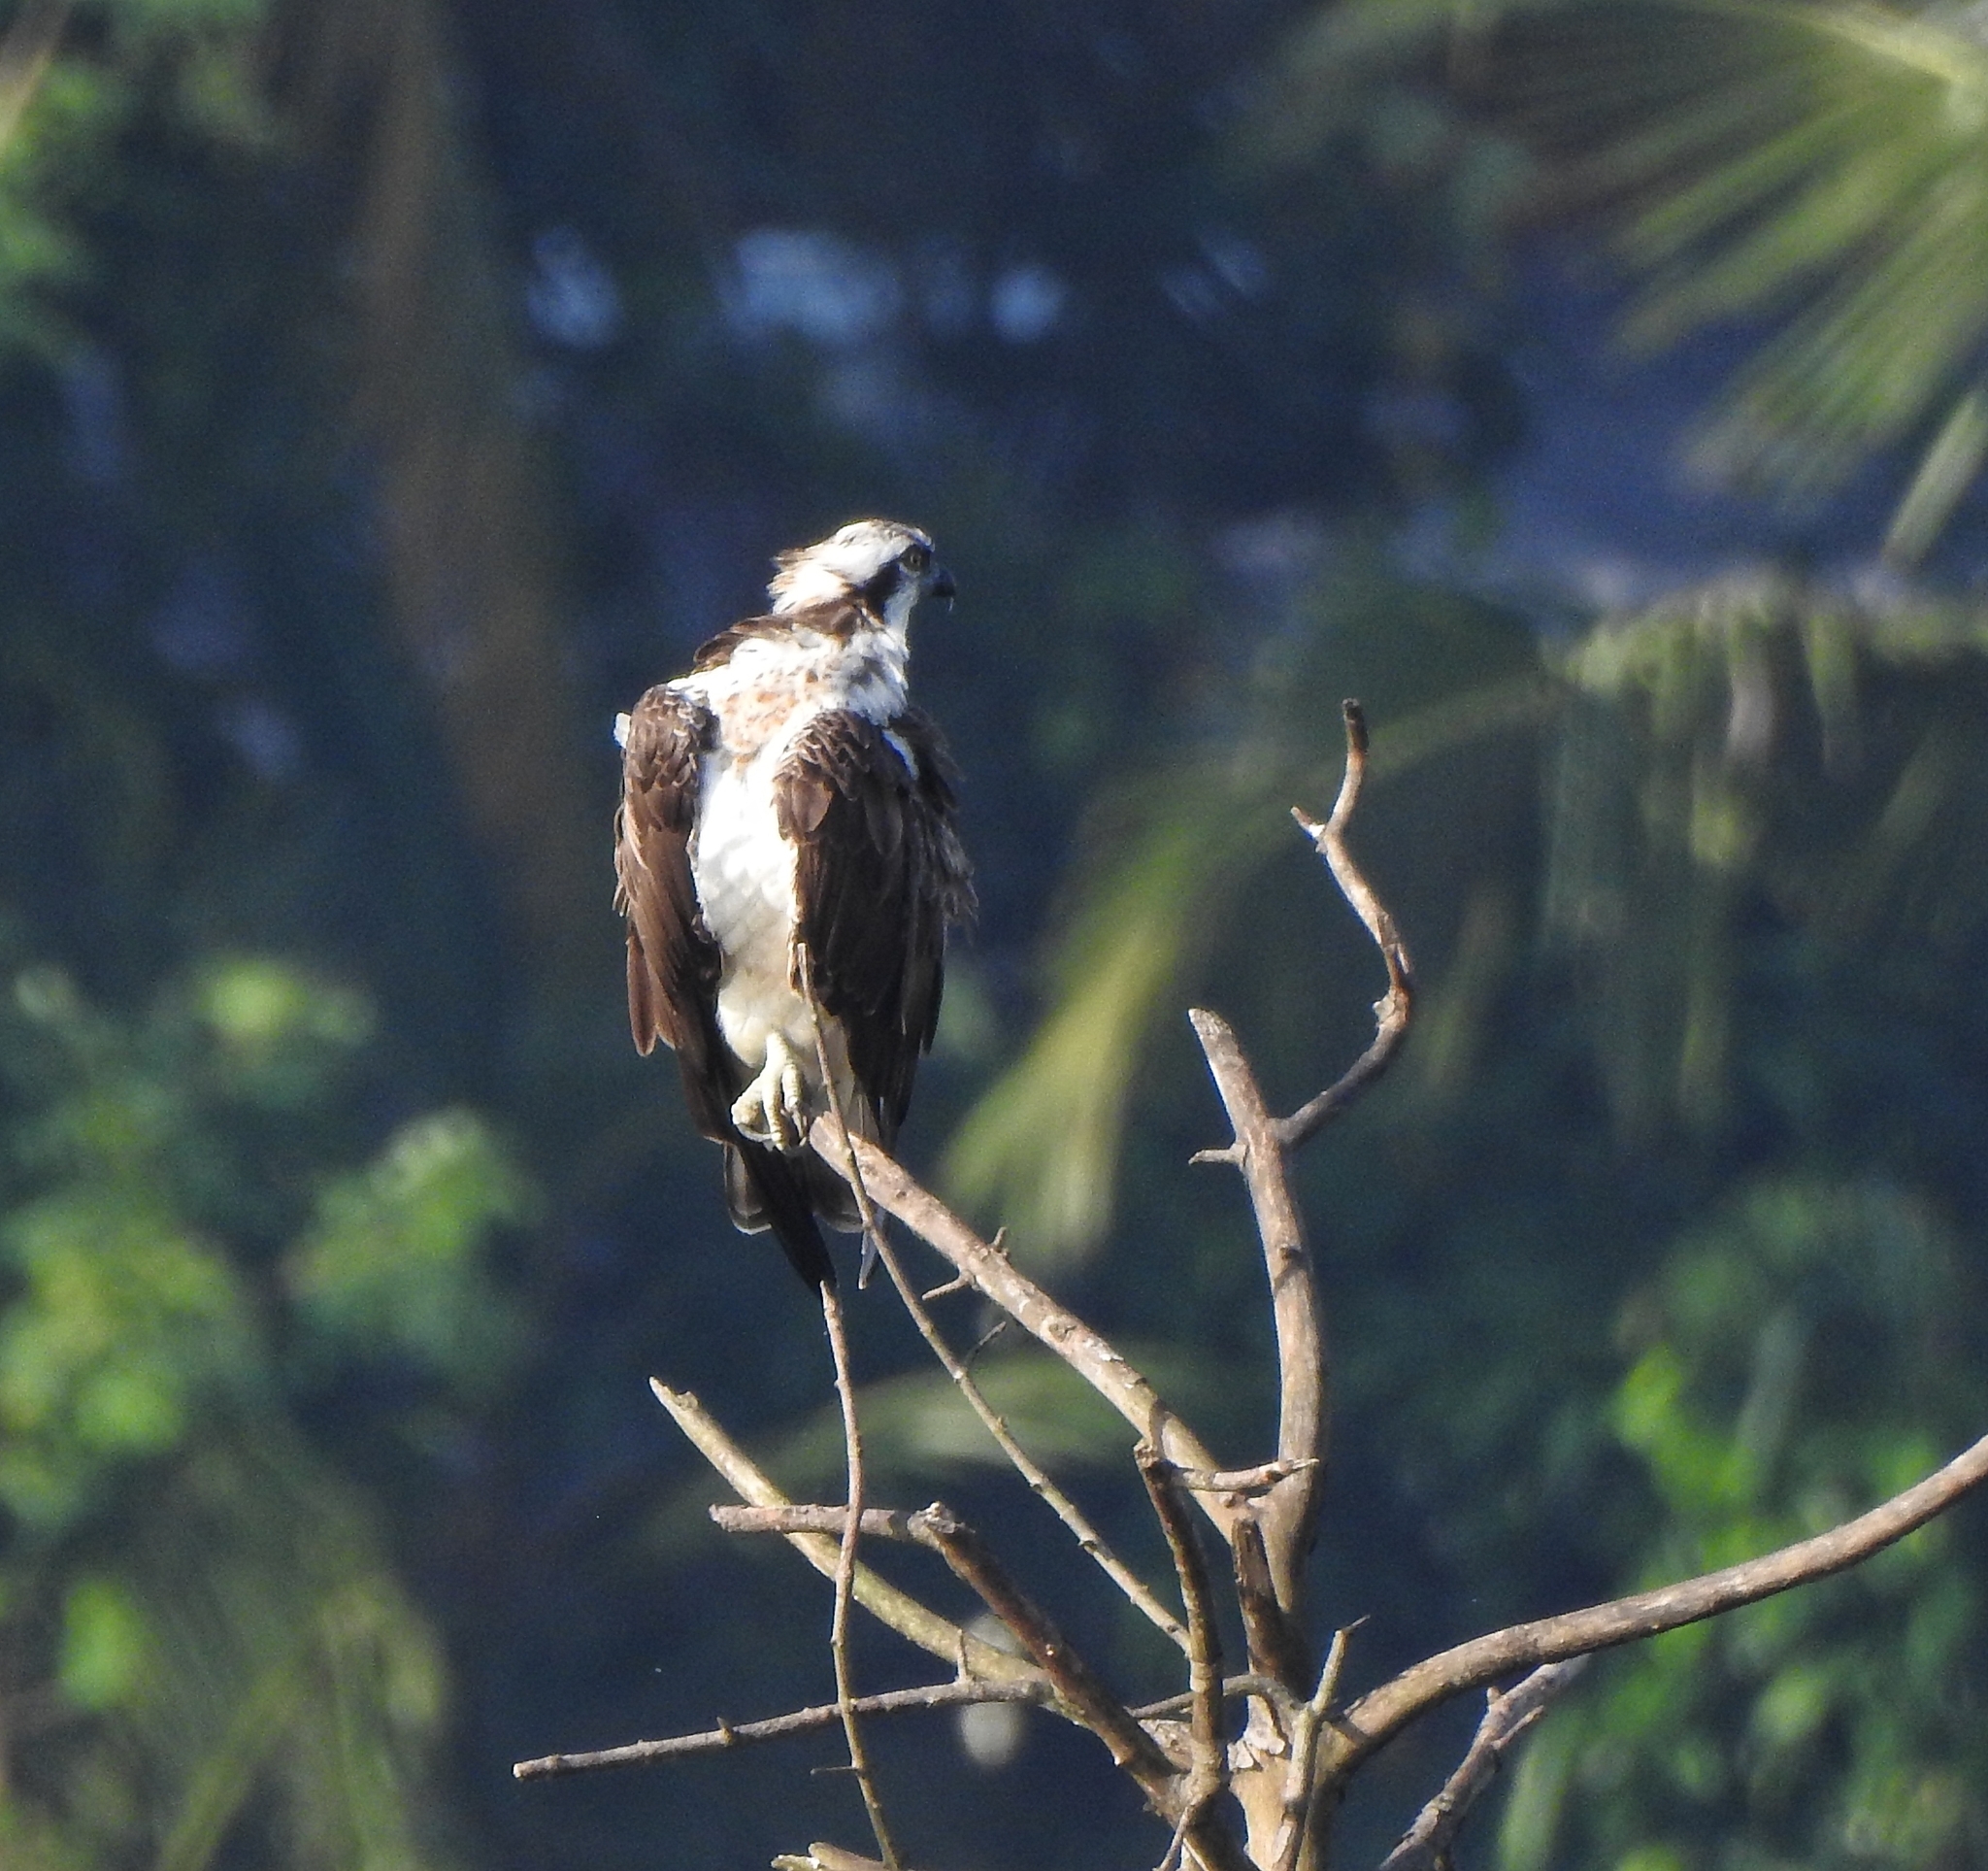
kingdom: Animalia
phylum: Chordata
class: Aves
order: Accipitriformes
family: Pandionidae
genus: Pandion
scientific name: Pandion haliaetus
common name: Osprey
